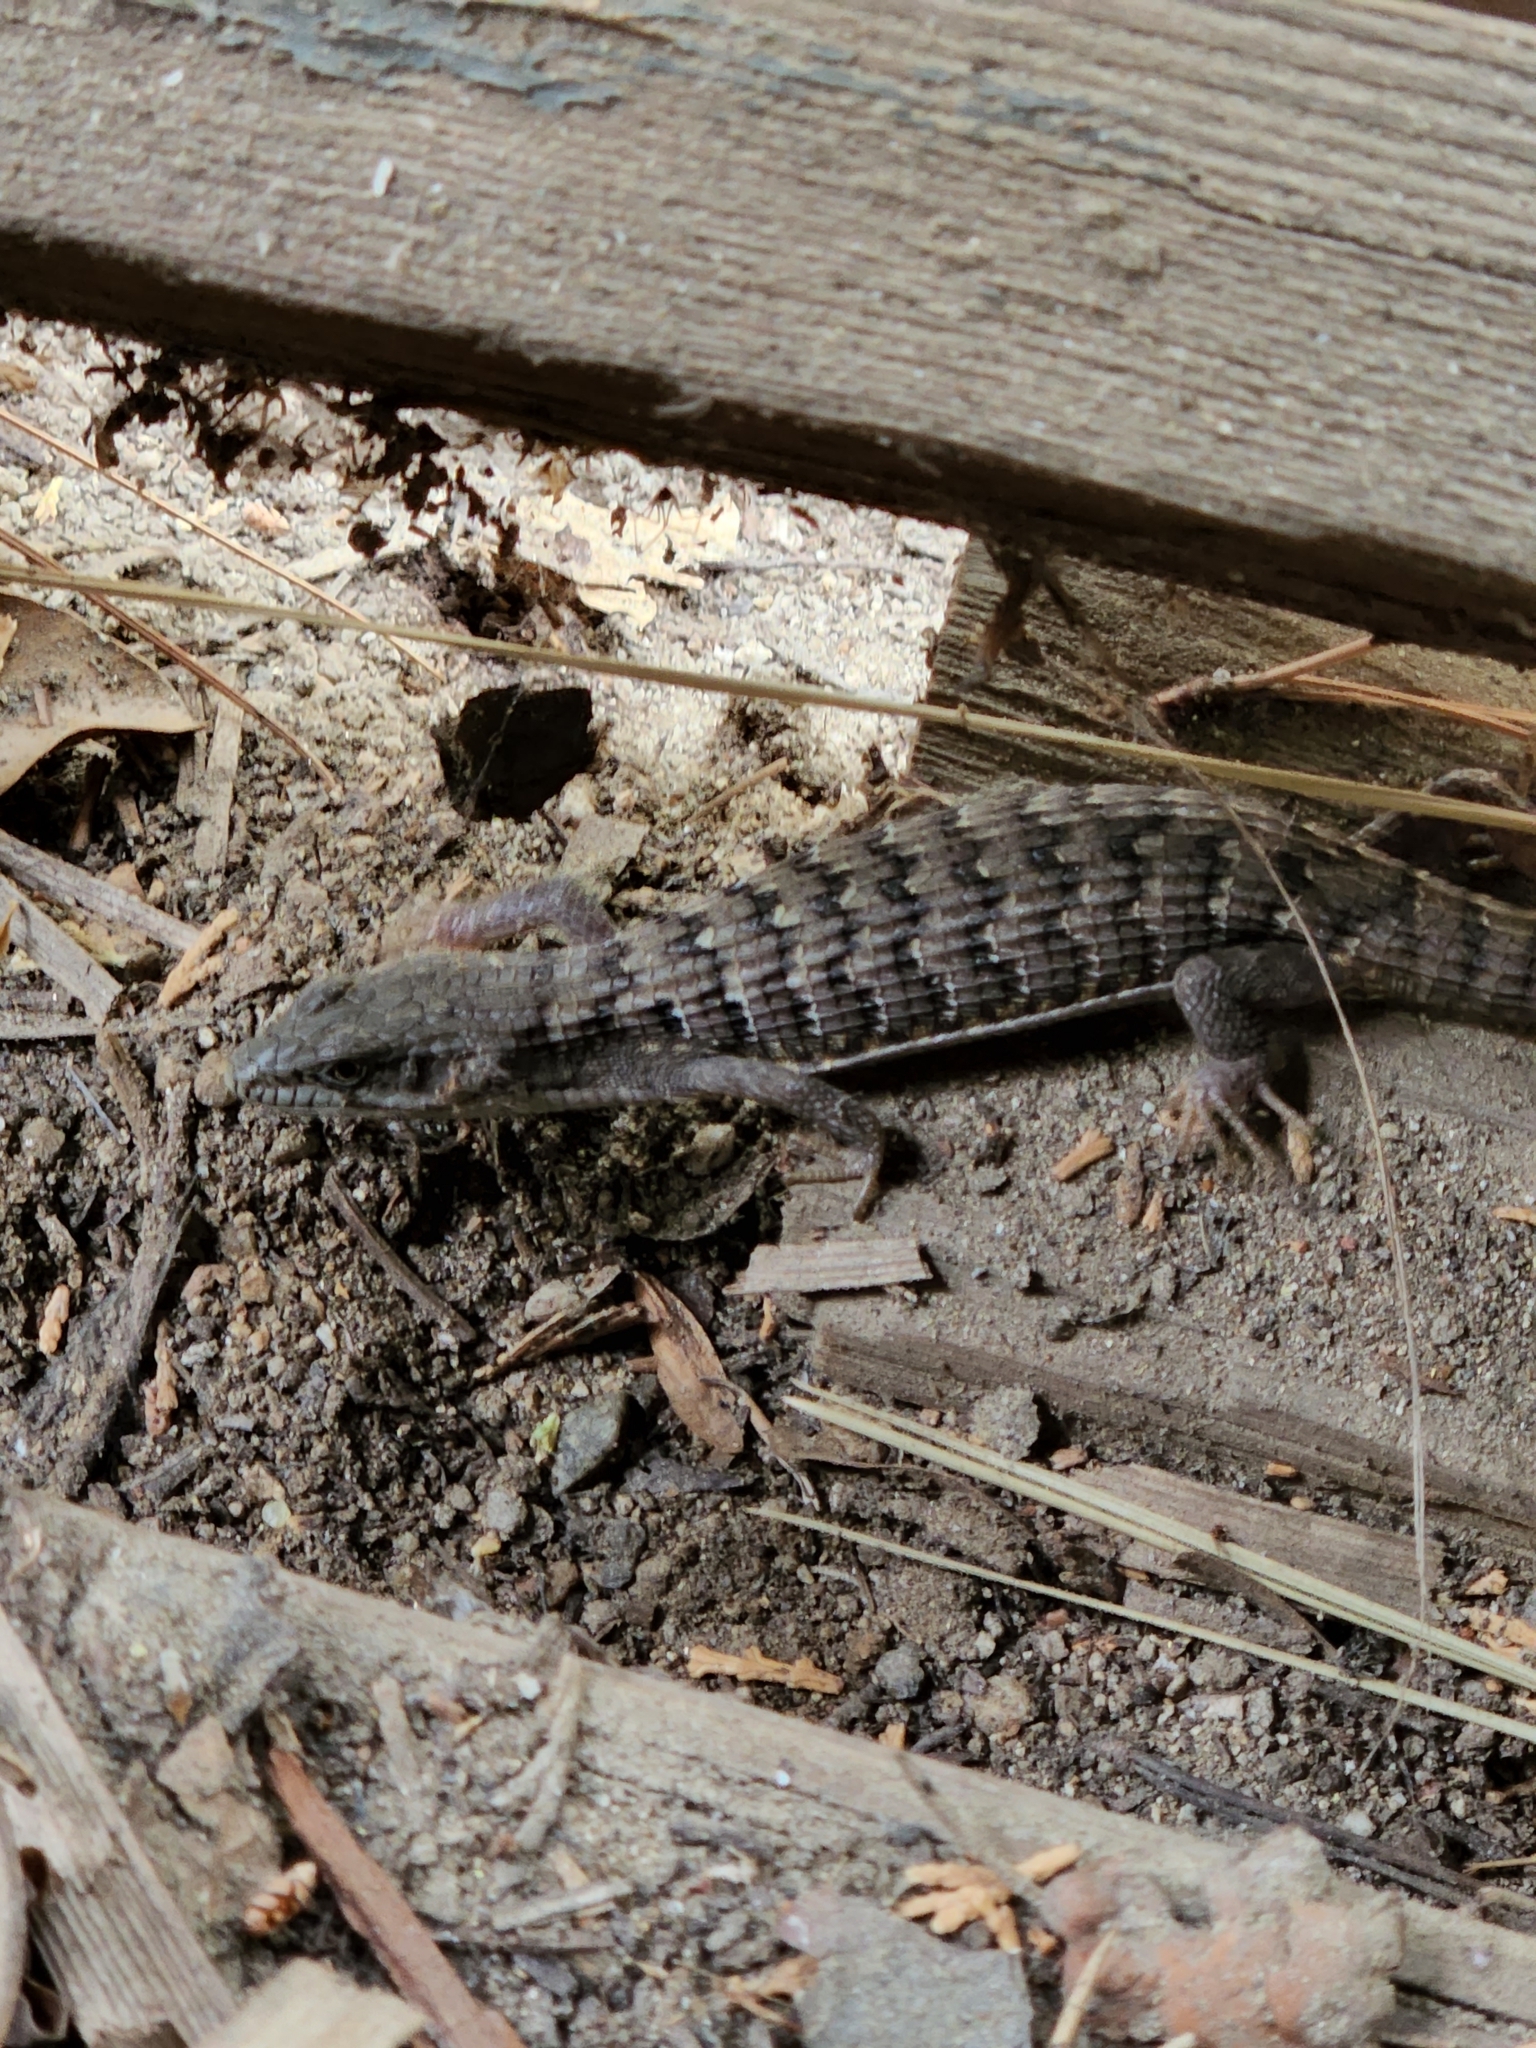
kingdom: Animalia
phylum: Chordata
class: Squamata
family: Anguidae
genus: Elgaria
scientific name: Elgaria multicarinata
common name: Southern alligator lizard
